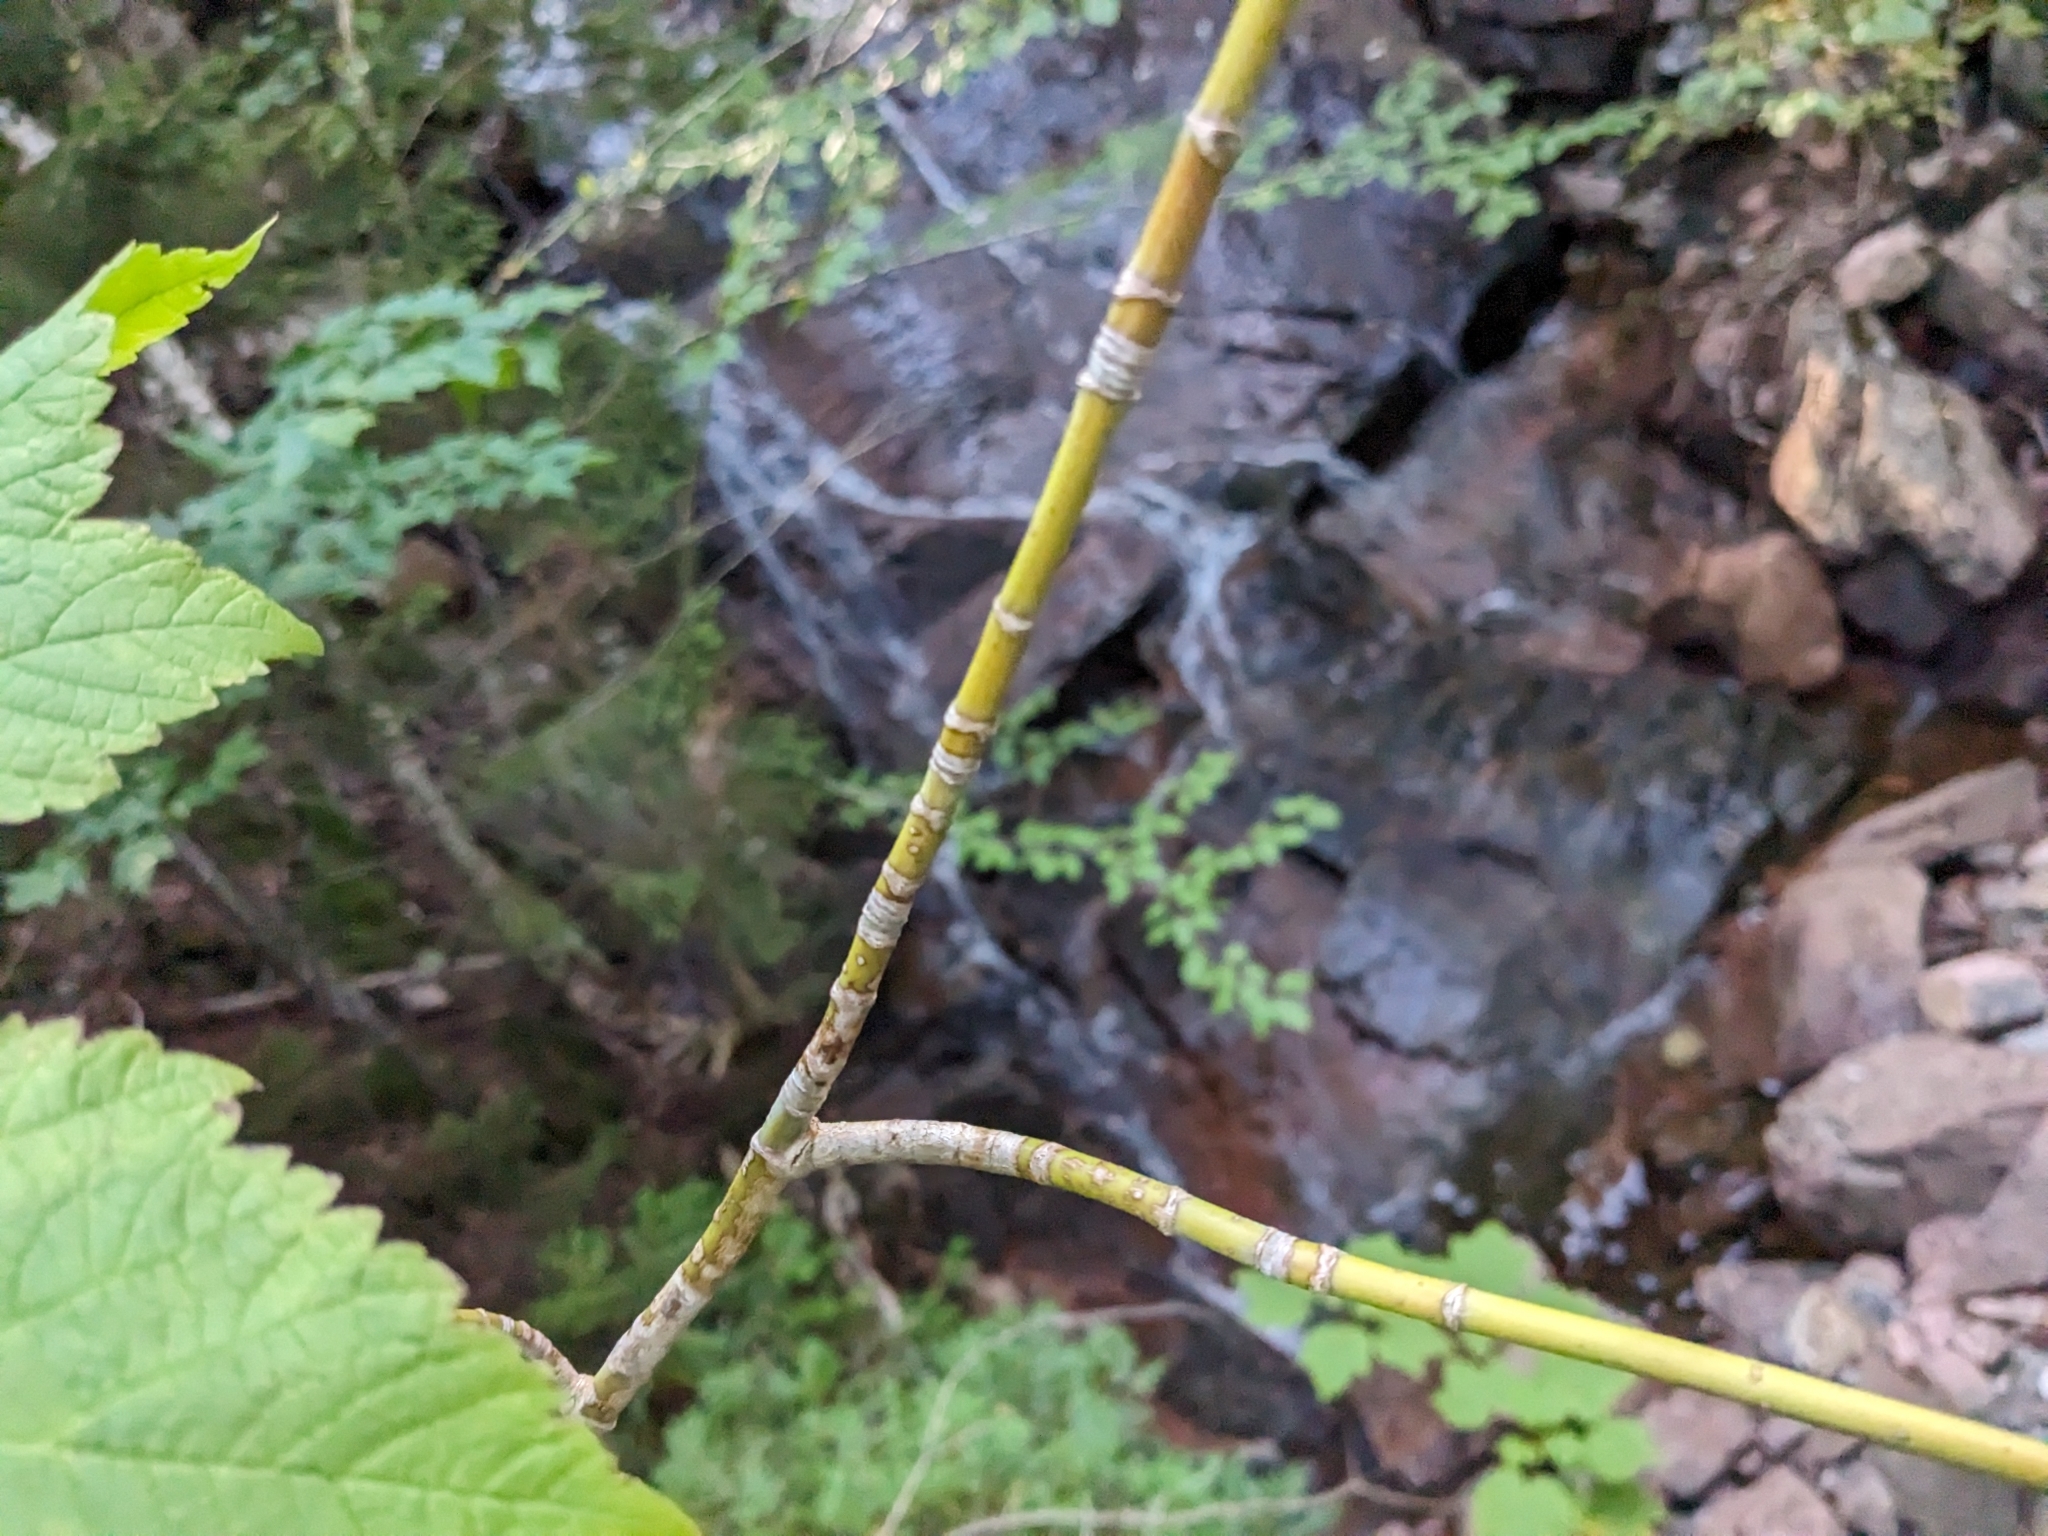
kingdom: Plantae
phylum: Tracheophyta
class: Magnoliopsida
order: Sapindales
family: Sapindaceae
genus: Acer
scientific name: Acer spicatum
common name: Mountain maple
